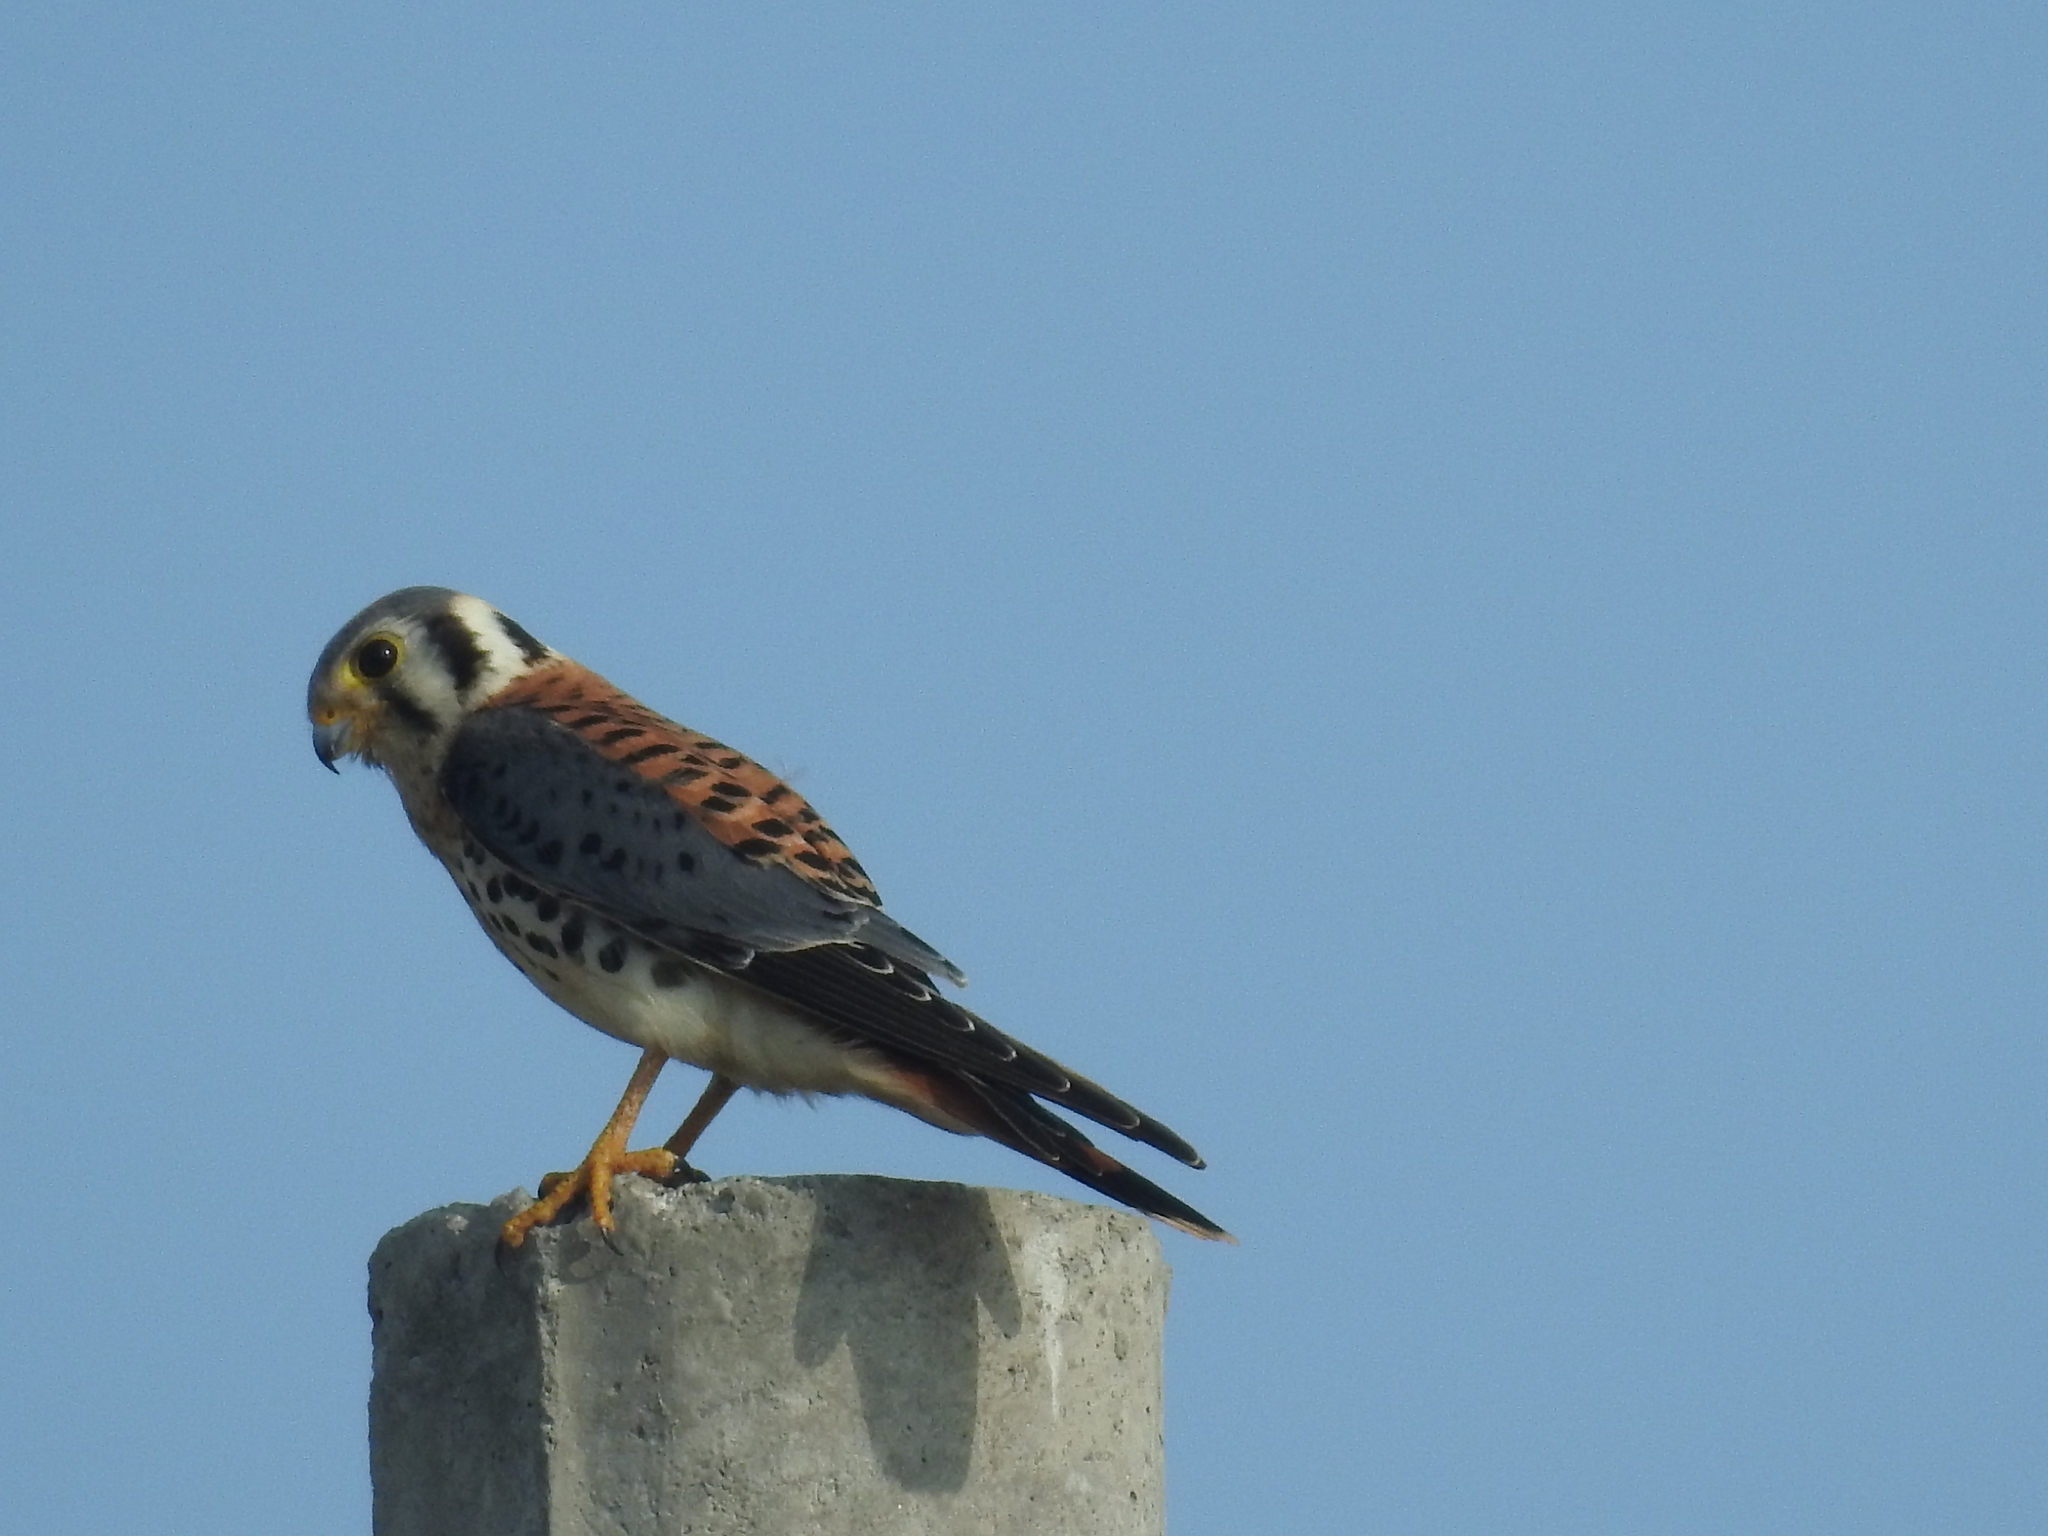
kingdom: Animalia
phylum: Chordata
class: Aves
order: Falconiformes
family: Falconidae
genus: Falco
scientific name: Falco sparverius
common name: American kestrel
